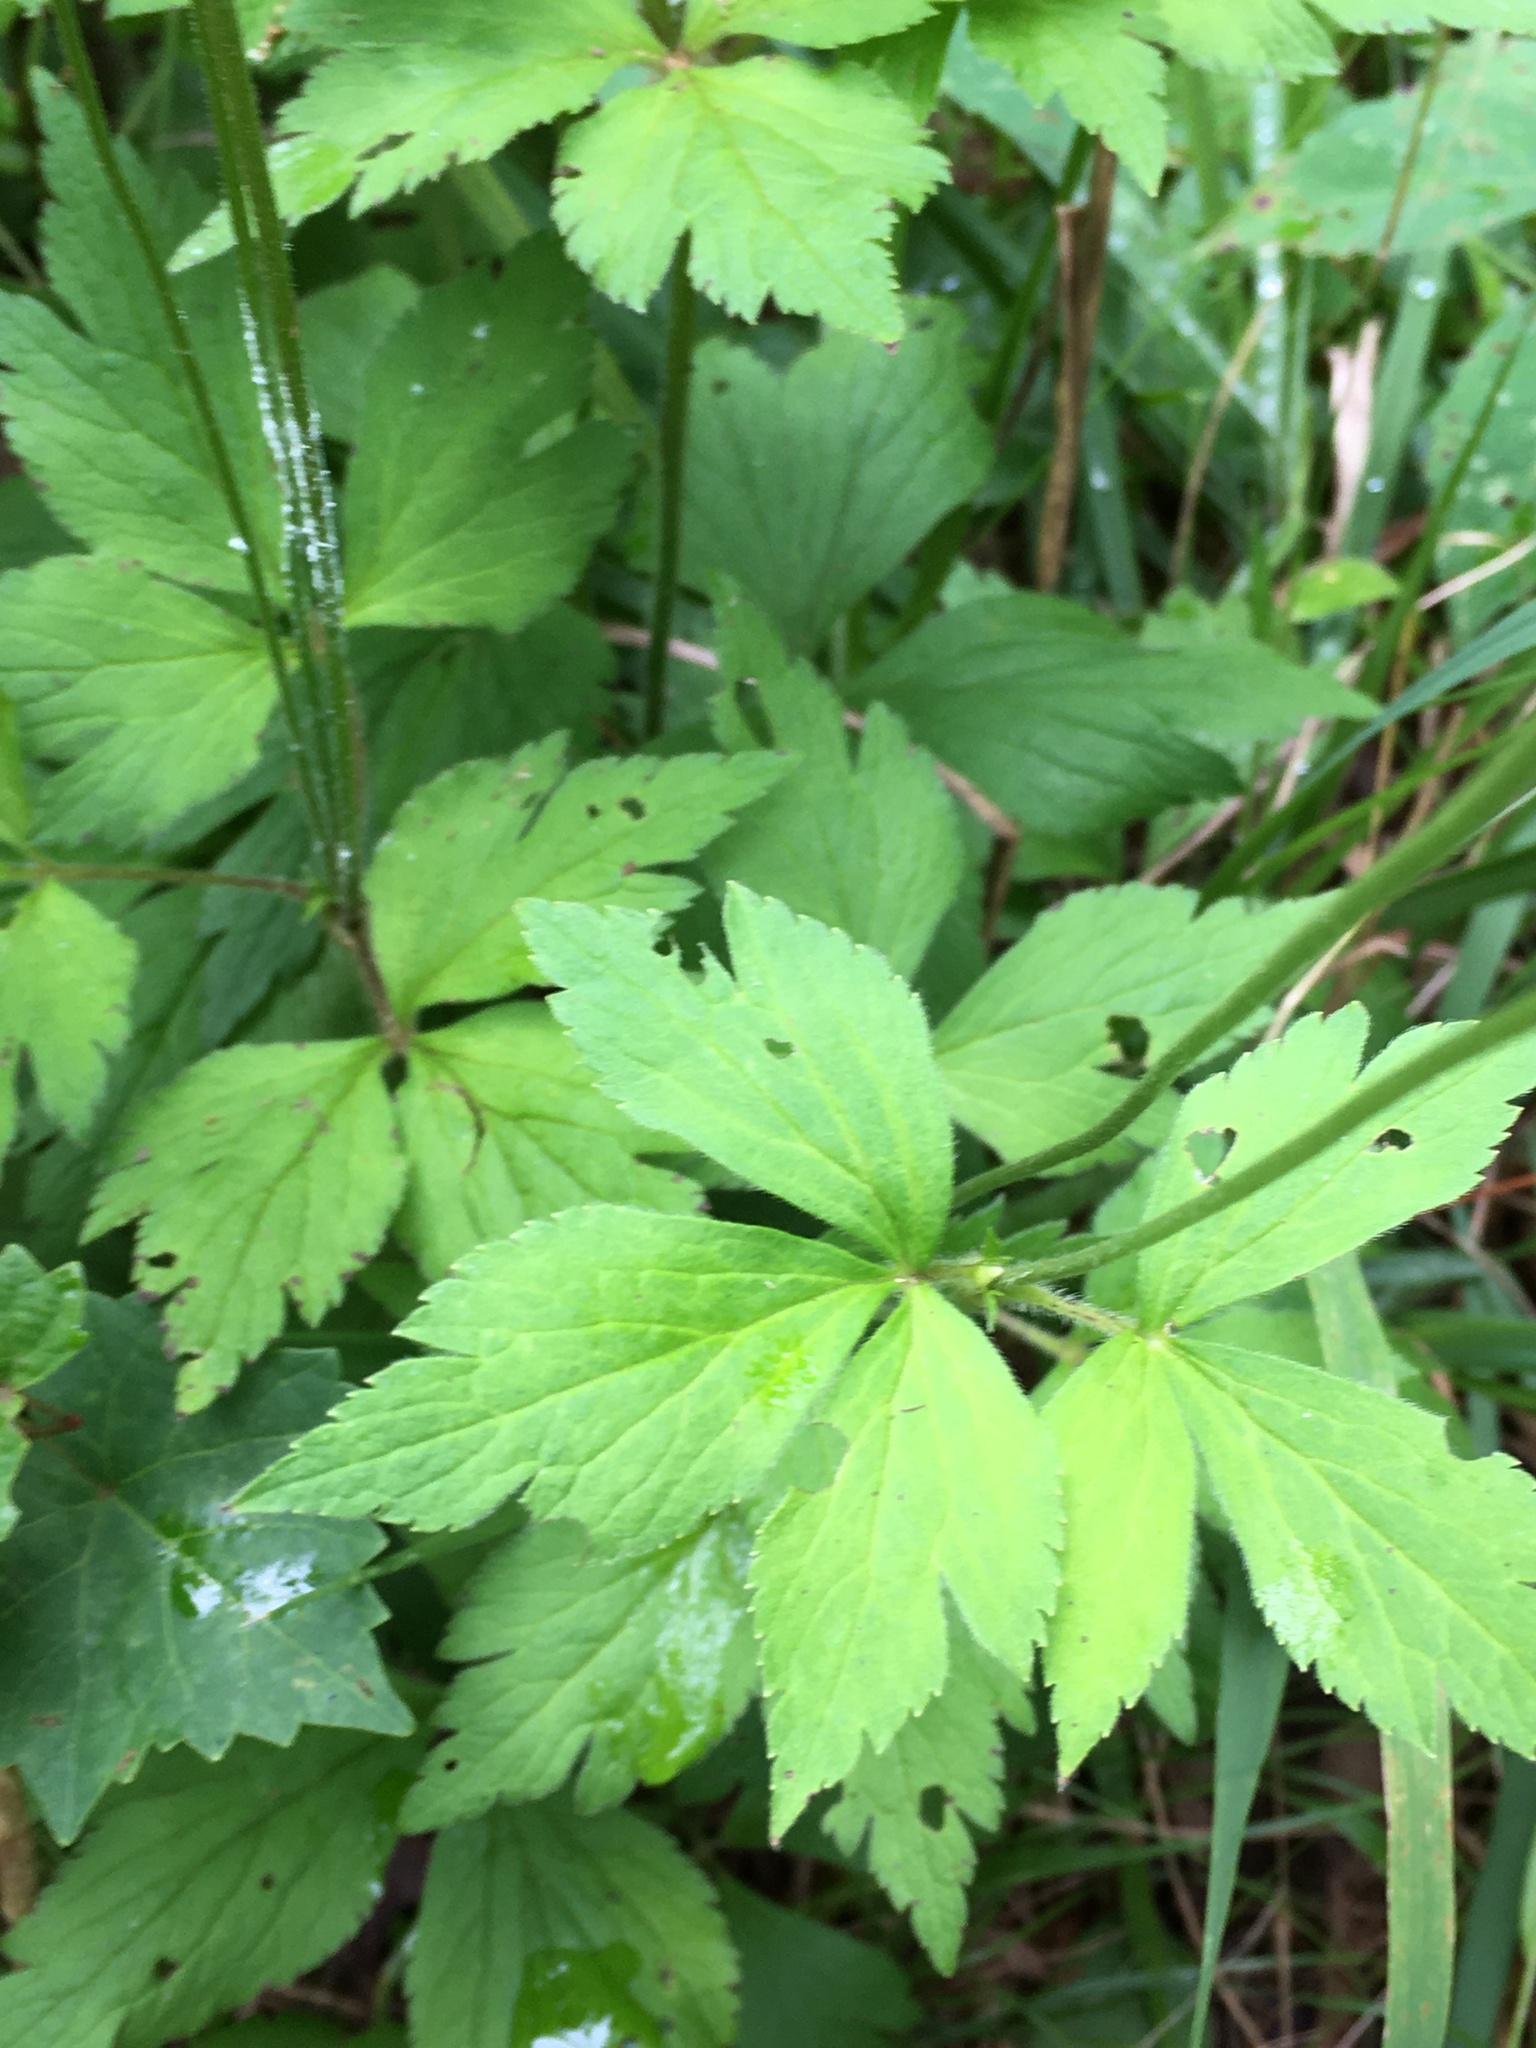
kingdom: Plantae
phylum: Tracheophyta
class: Magnoliopsida
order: Ranunculales
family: Ranunculaceae
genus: Anemone
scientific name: Anemone virginiana
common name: Tall anemone
